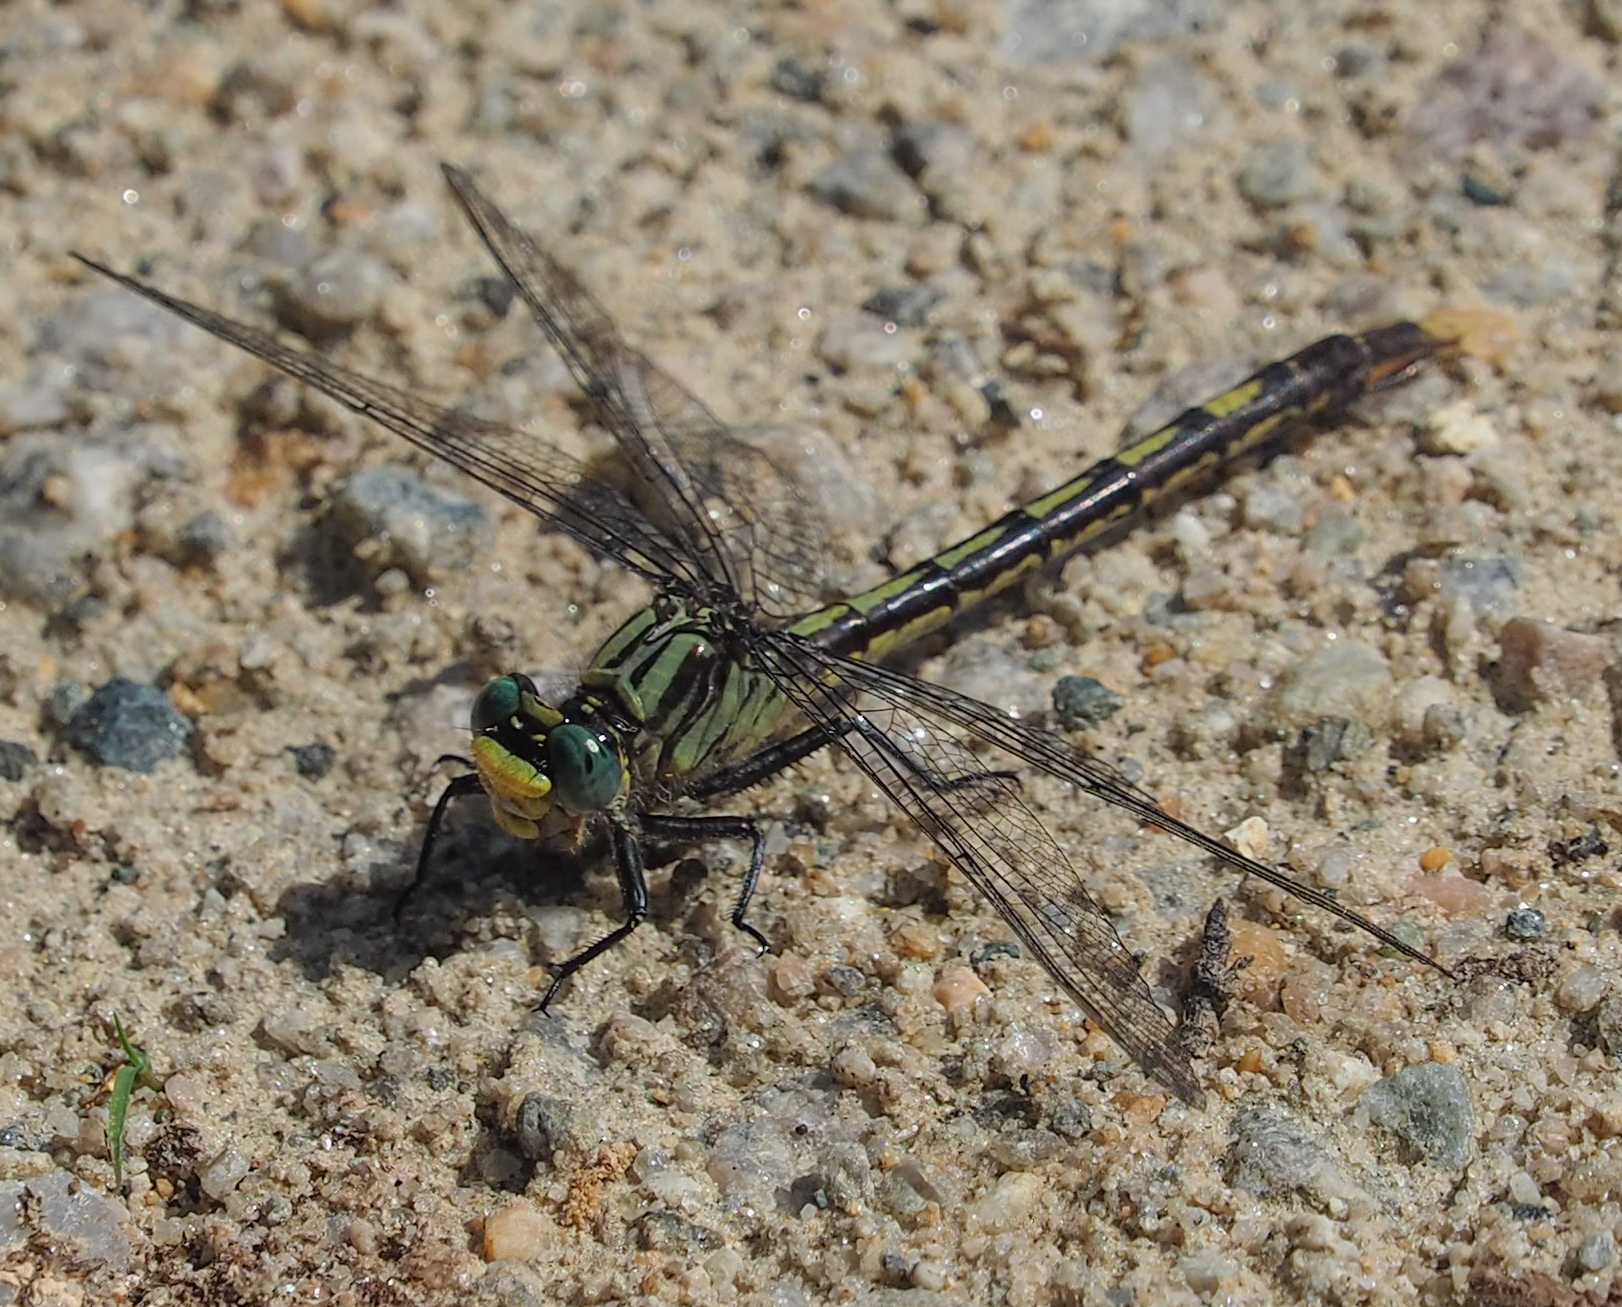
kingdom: Animalia
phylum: Arthropoda
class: Insecta
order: Odonata
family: Gomphidae
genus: Arigomphus
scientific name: Arigomphus villosipes
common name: Unicorn clubtail
